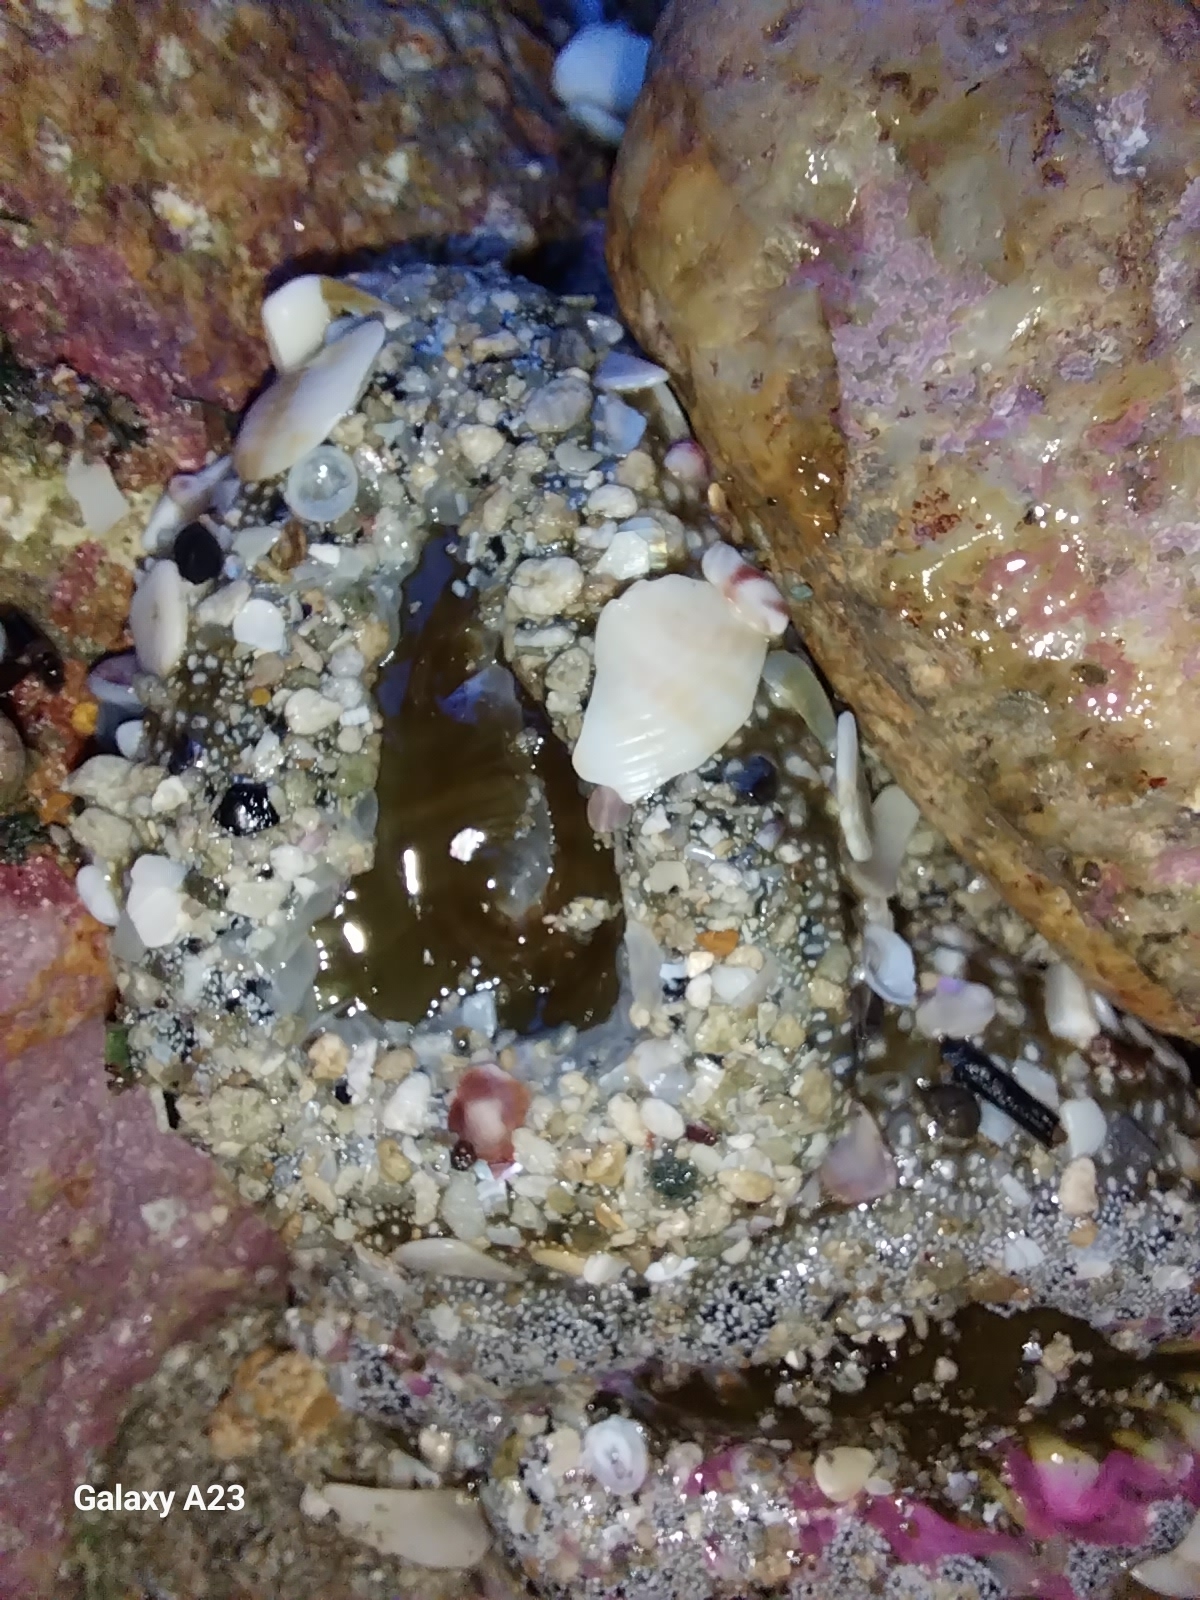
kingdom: Animalia
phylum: Cnidaria
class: Anthozoa
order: Actiniaria
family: Actiniidae
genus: Oulactis
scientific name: Oulactis magna
